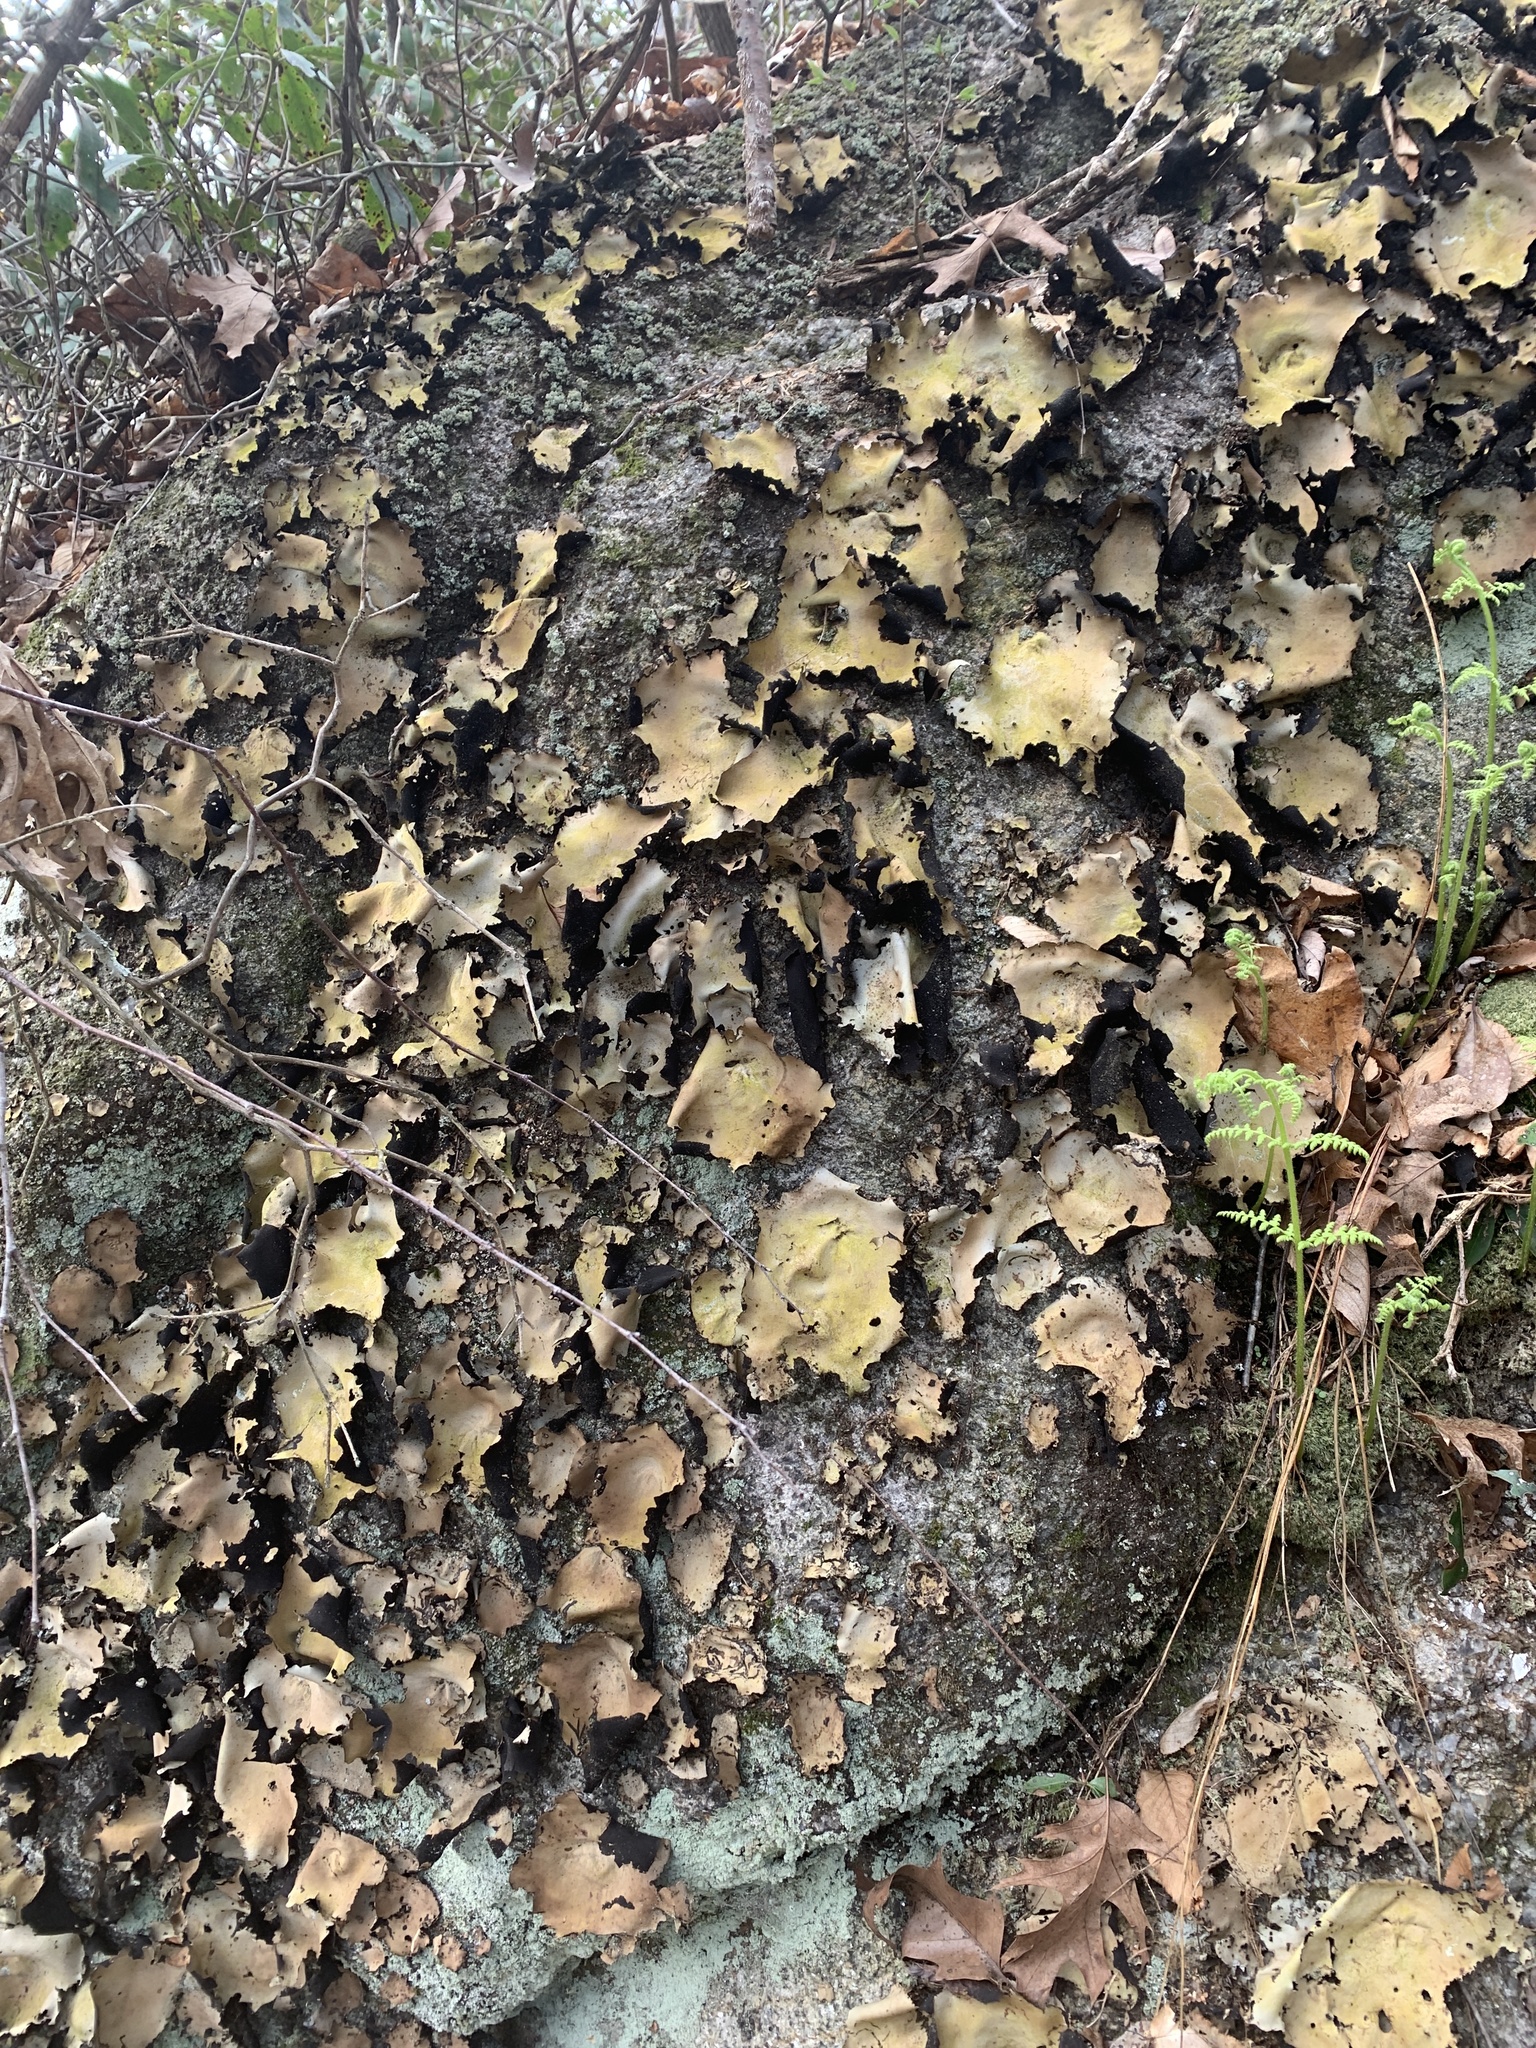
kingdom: Fungi
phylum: Ascomycota
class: Lecanoromycetes
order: Umbilicariales
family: Umbilicariaceae
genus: Umbilicaria
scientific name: Umbilicaria mammulata
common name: Smooth rock tripe
